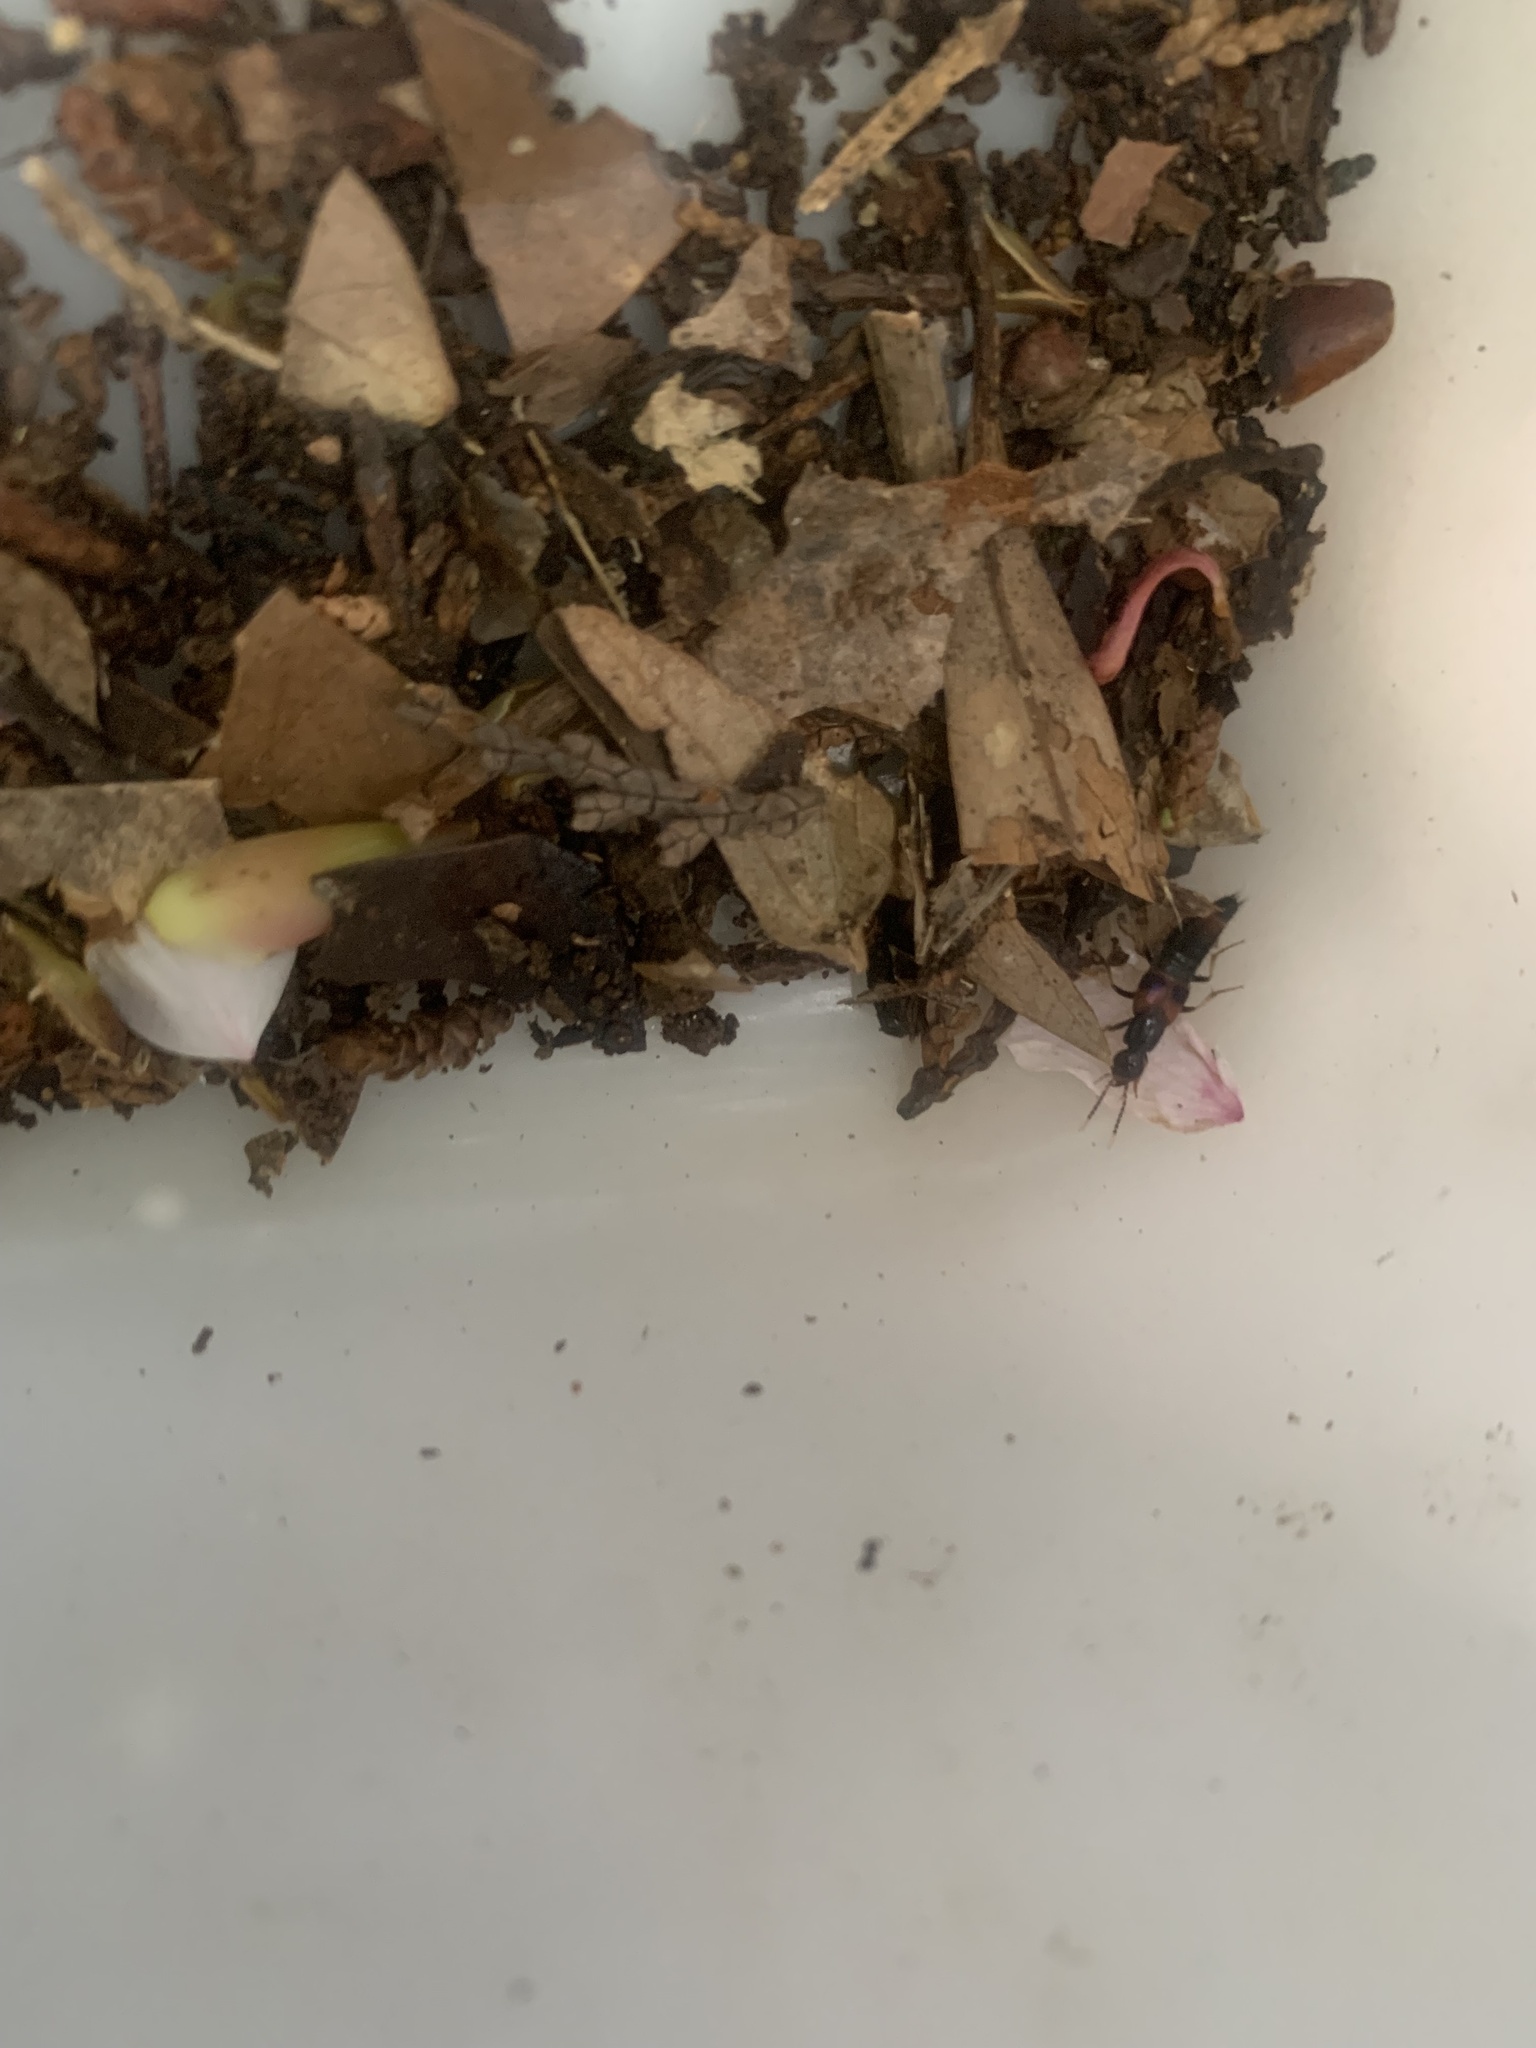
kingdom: Animalia
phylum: Arthropoda
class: Insecta
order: Coleoptera
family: Staphylinidae
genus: Hesperus
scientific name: Hesperus tiro
